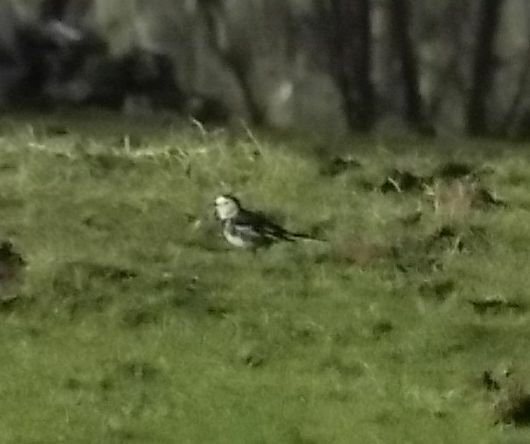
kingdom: Animalia
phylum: Chordata
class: Aves
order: Passeriformes
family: Motacillidae
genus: Motacilla
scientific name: Motacilla alba
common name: White wagtail
